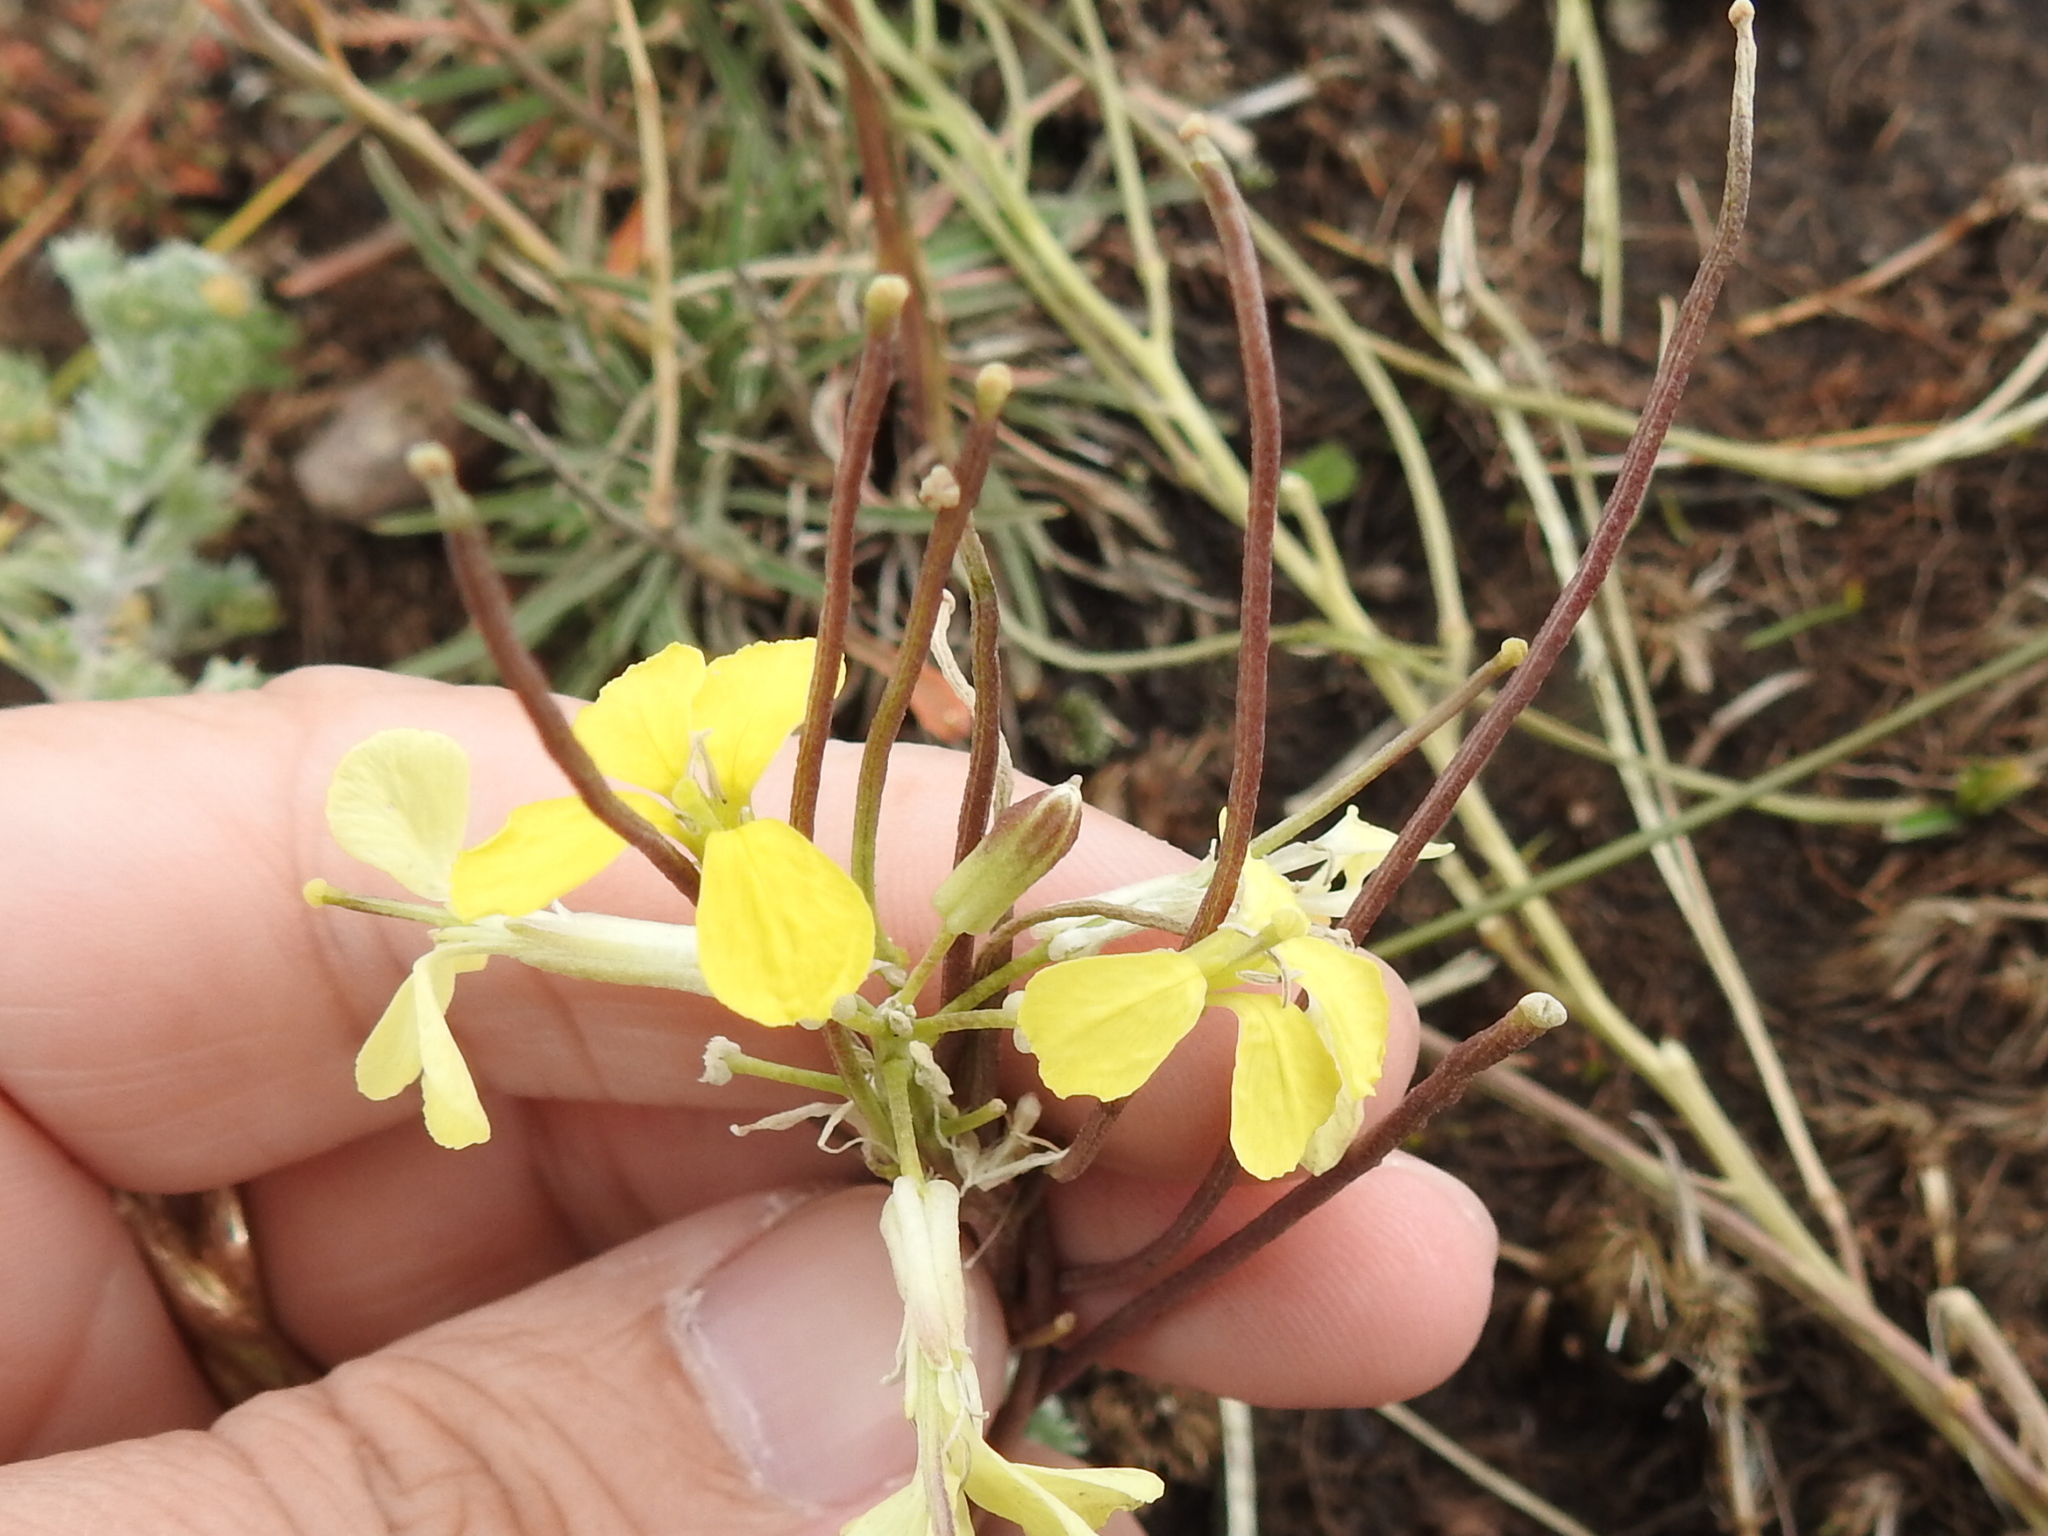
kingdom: Plantae
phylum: Tracheophyta
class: Magnoliopsida
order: Brassicales
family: Brassicaceae
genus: Erysimum
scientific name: Erysimum capitatum
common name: Western wallflower
